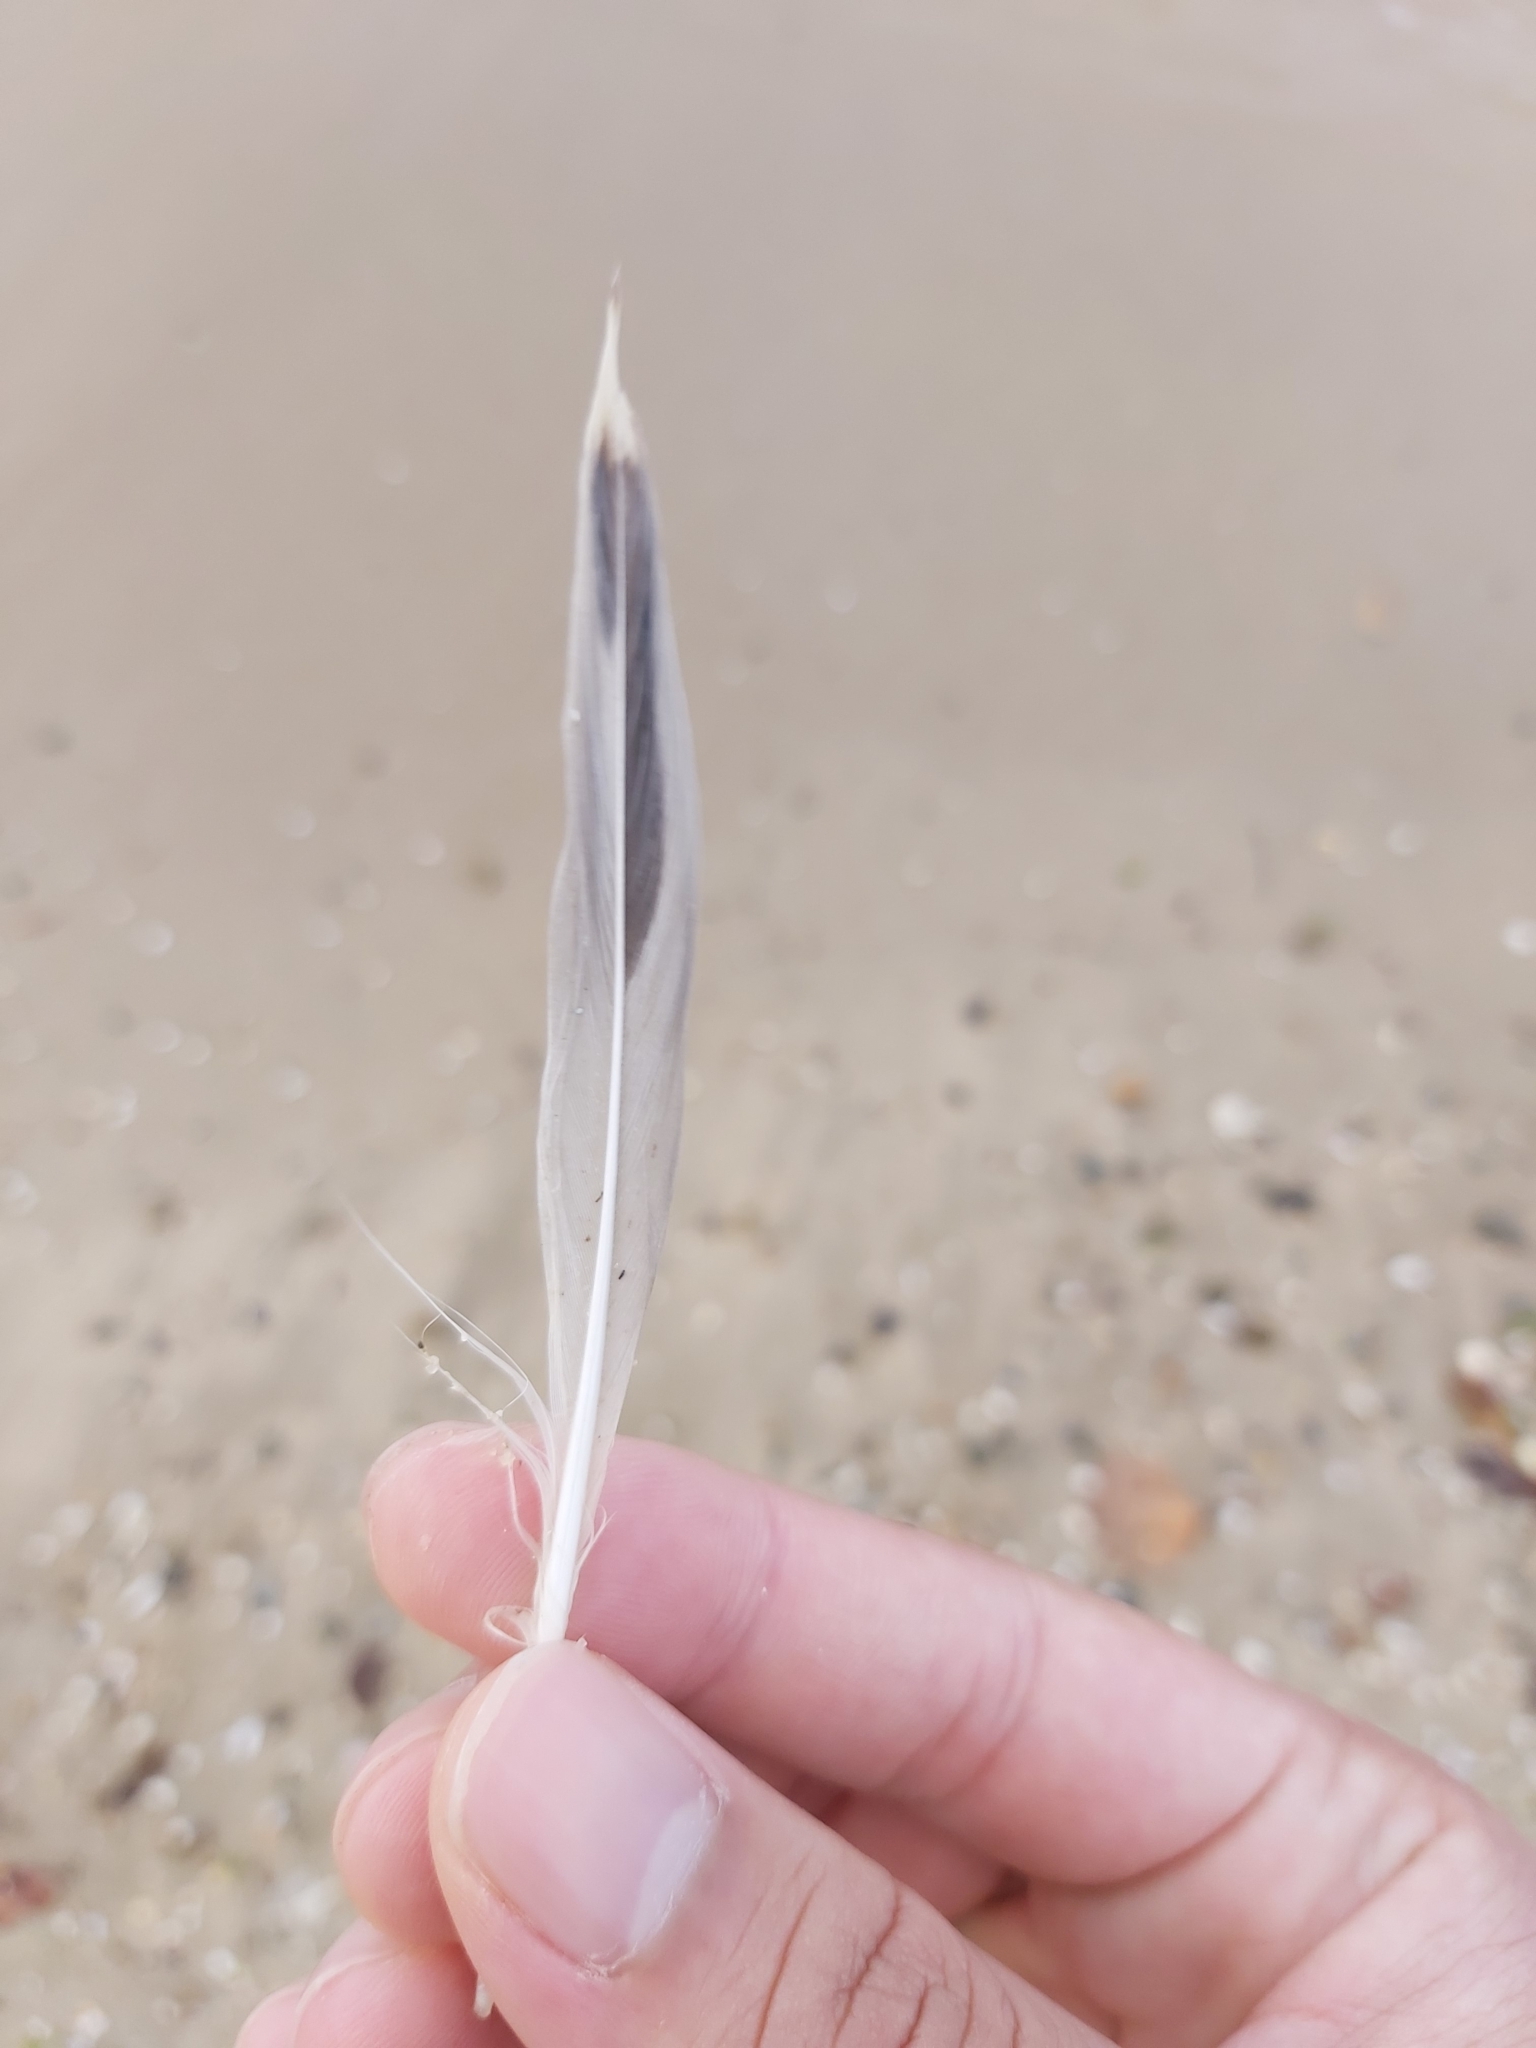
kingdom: Animalia
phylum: Chordata
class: Aves
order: Charadriiformes
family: Laridae
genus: Chroicocephalus
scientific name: Chroicocephalus novaehollandiae
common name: Silver gull
